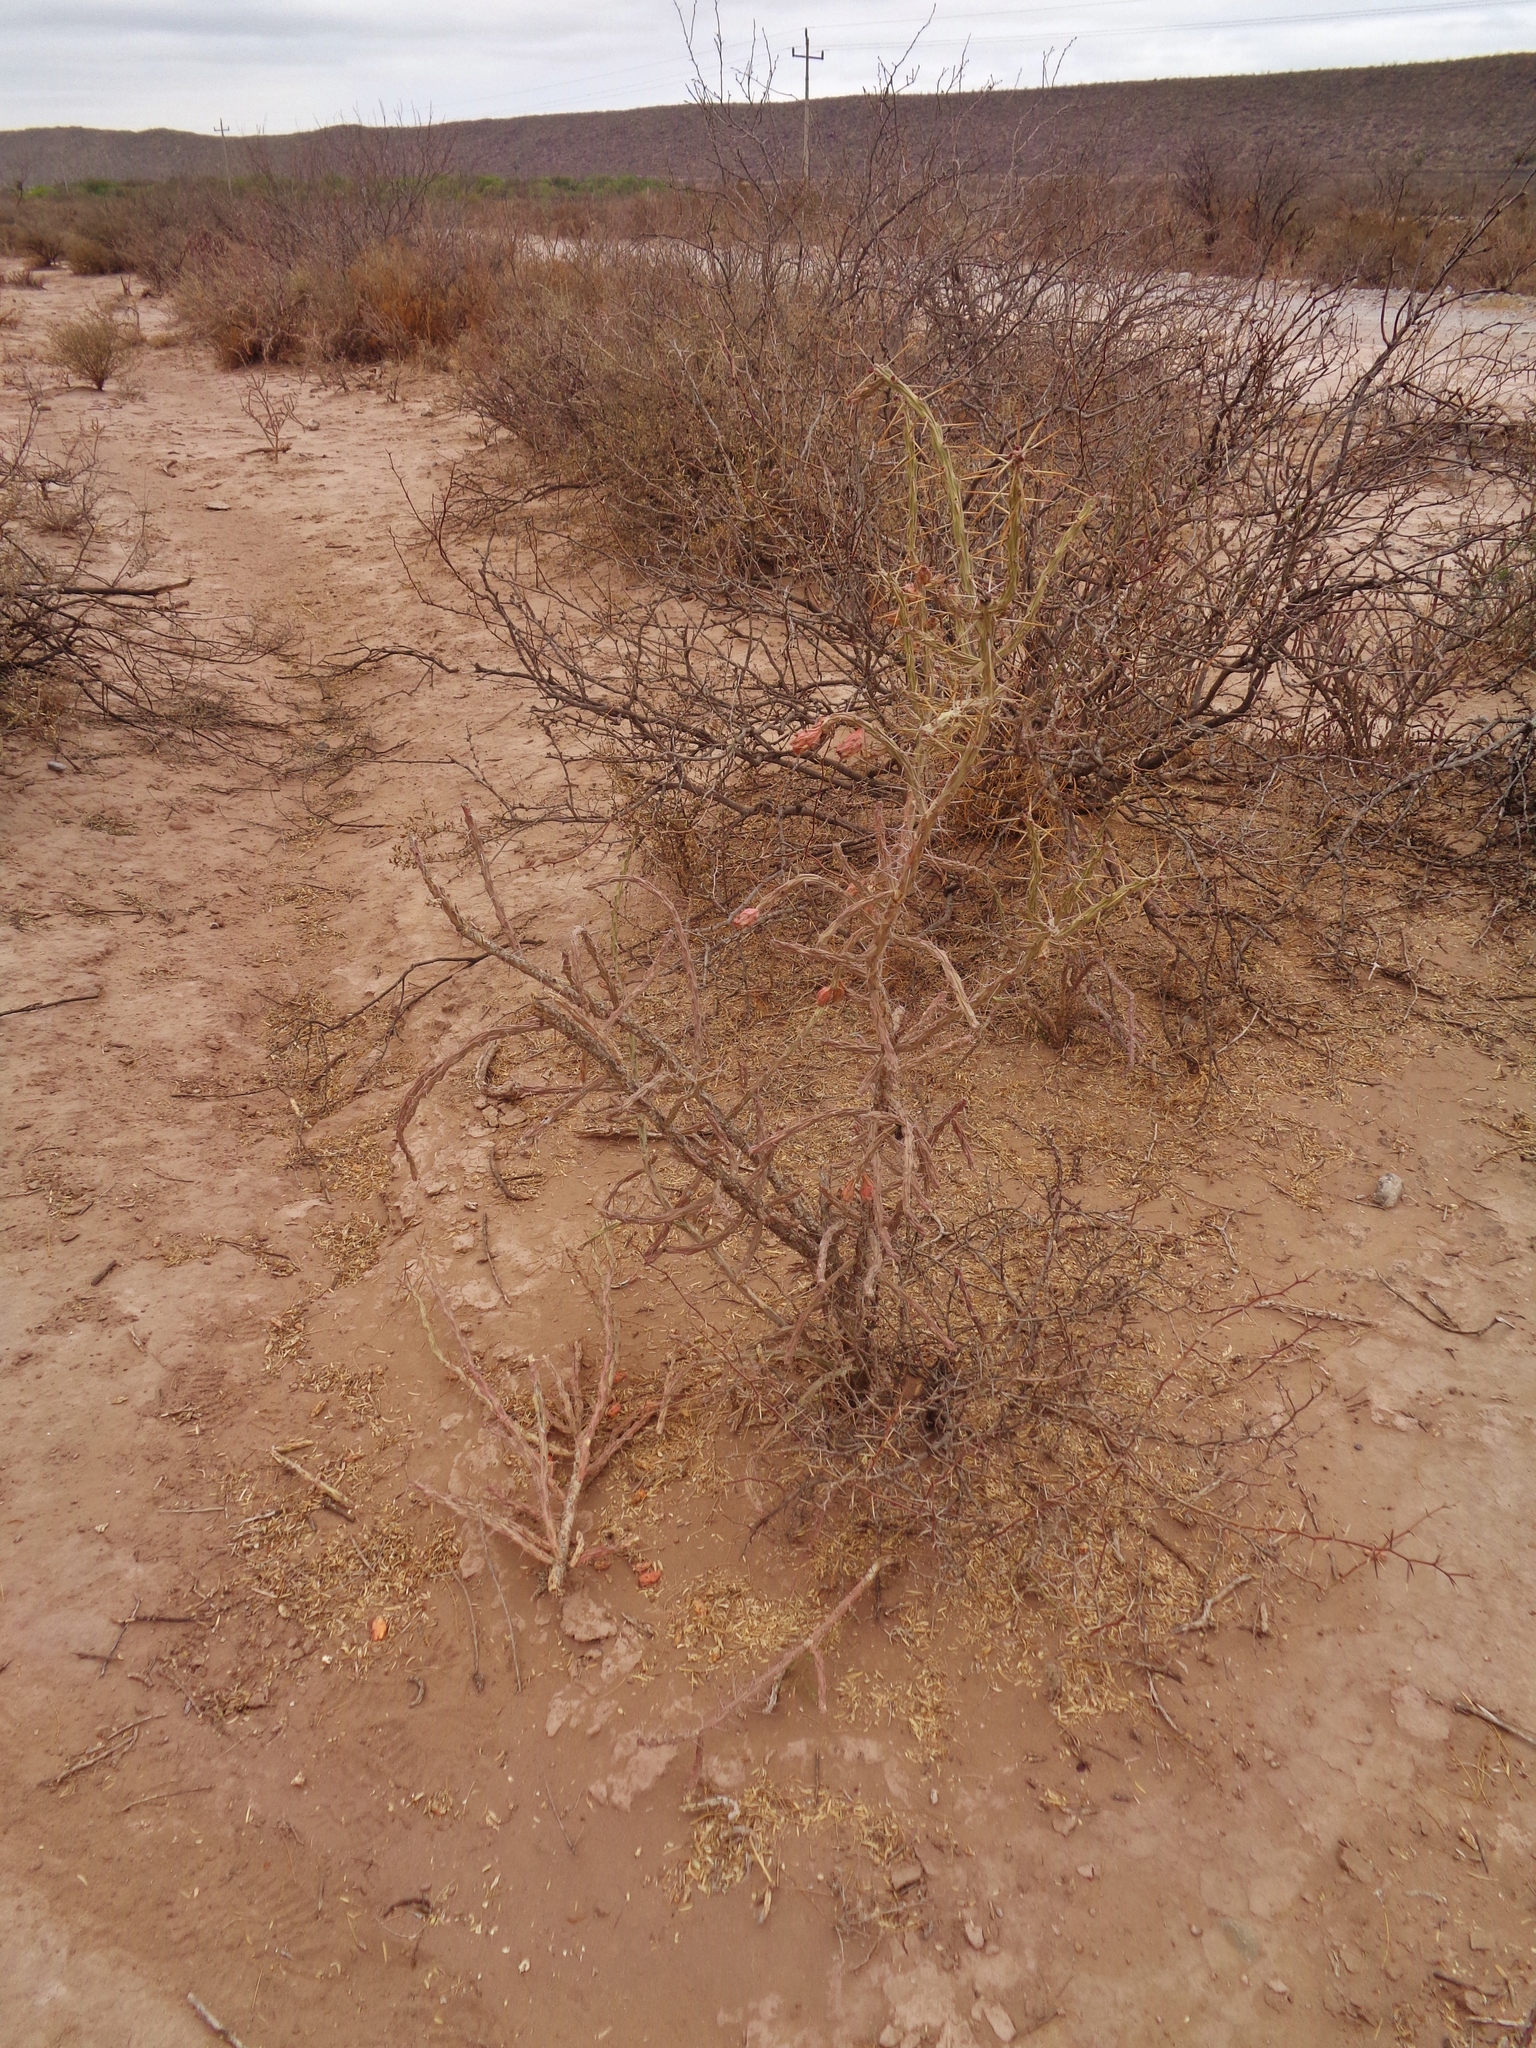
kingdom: Plantae
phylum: Tracheophyta
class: Magnoliopsida
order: Caryophyllales
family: Cactaceae
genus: Cylindropuntia
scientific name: Cylindropuntia kleiniae
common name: Klein's cholla
